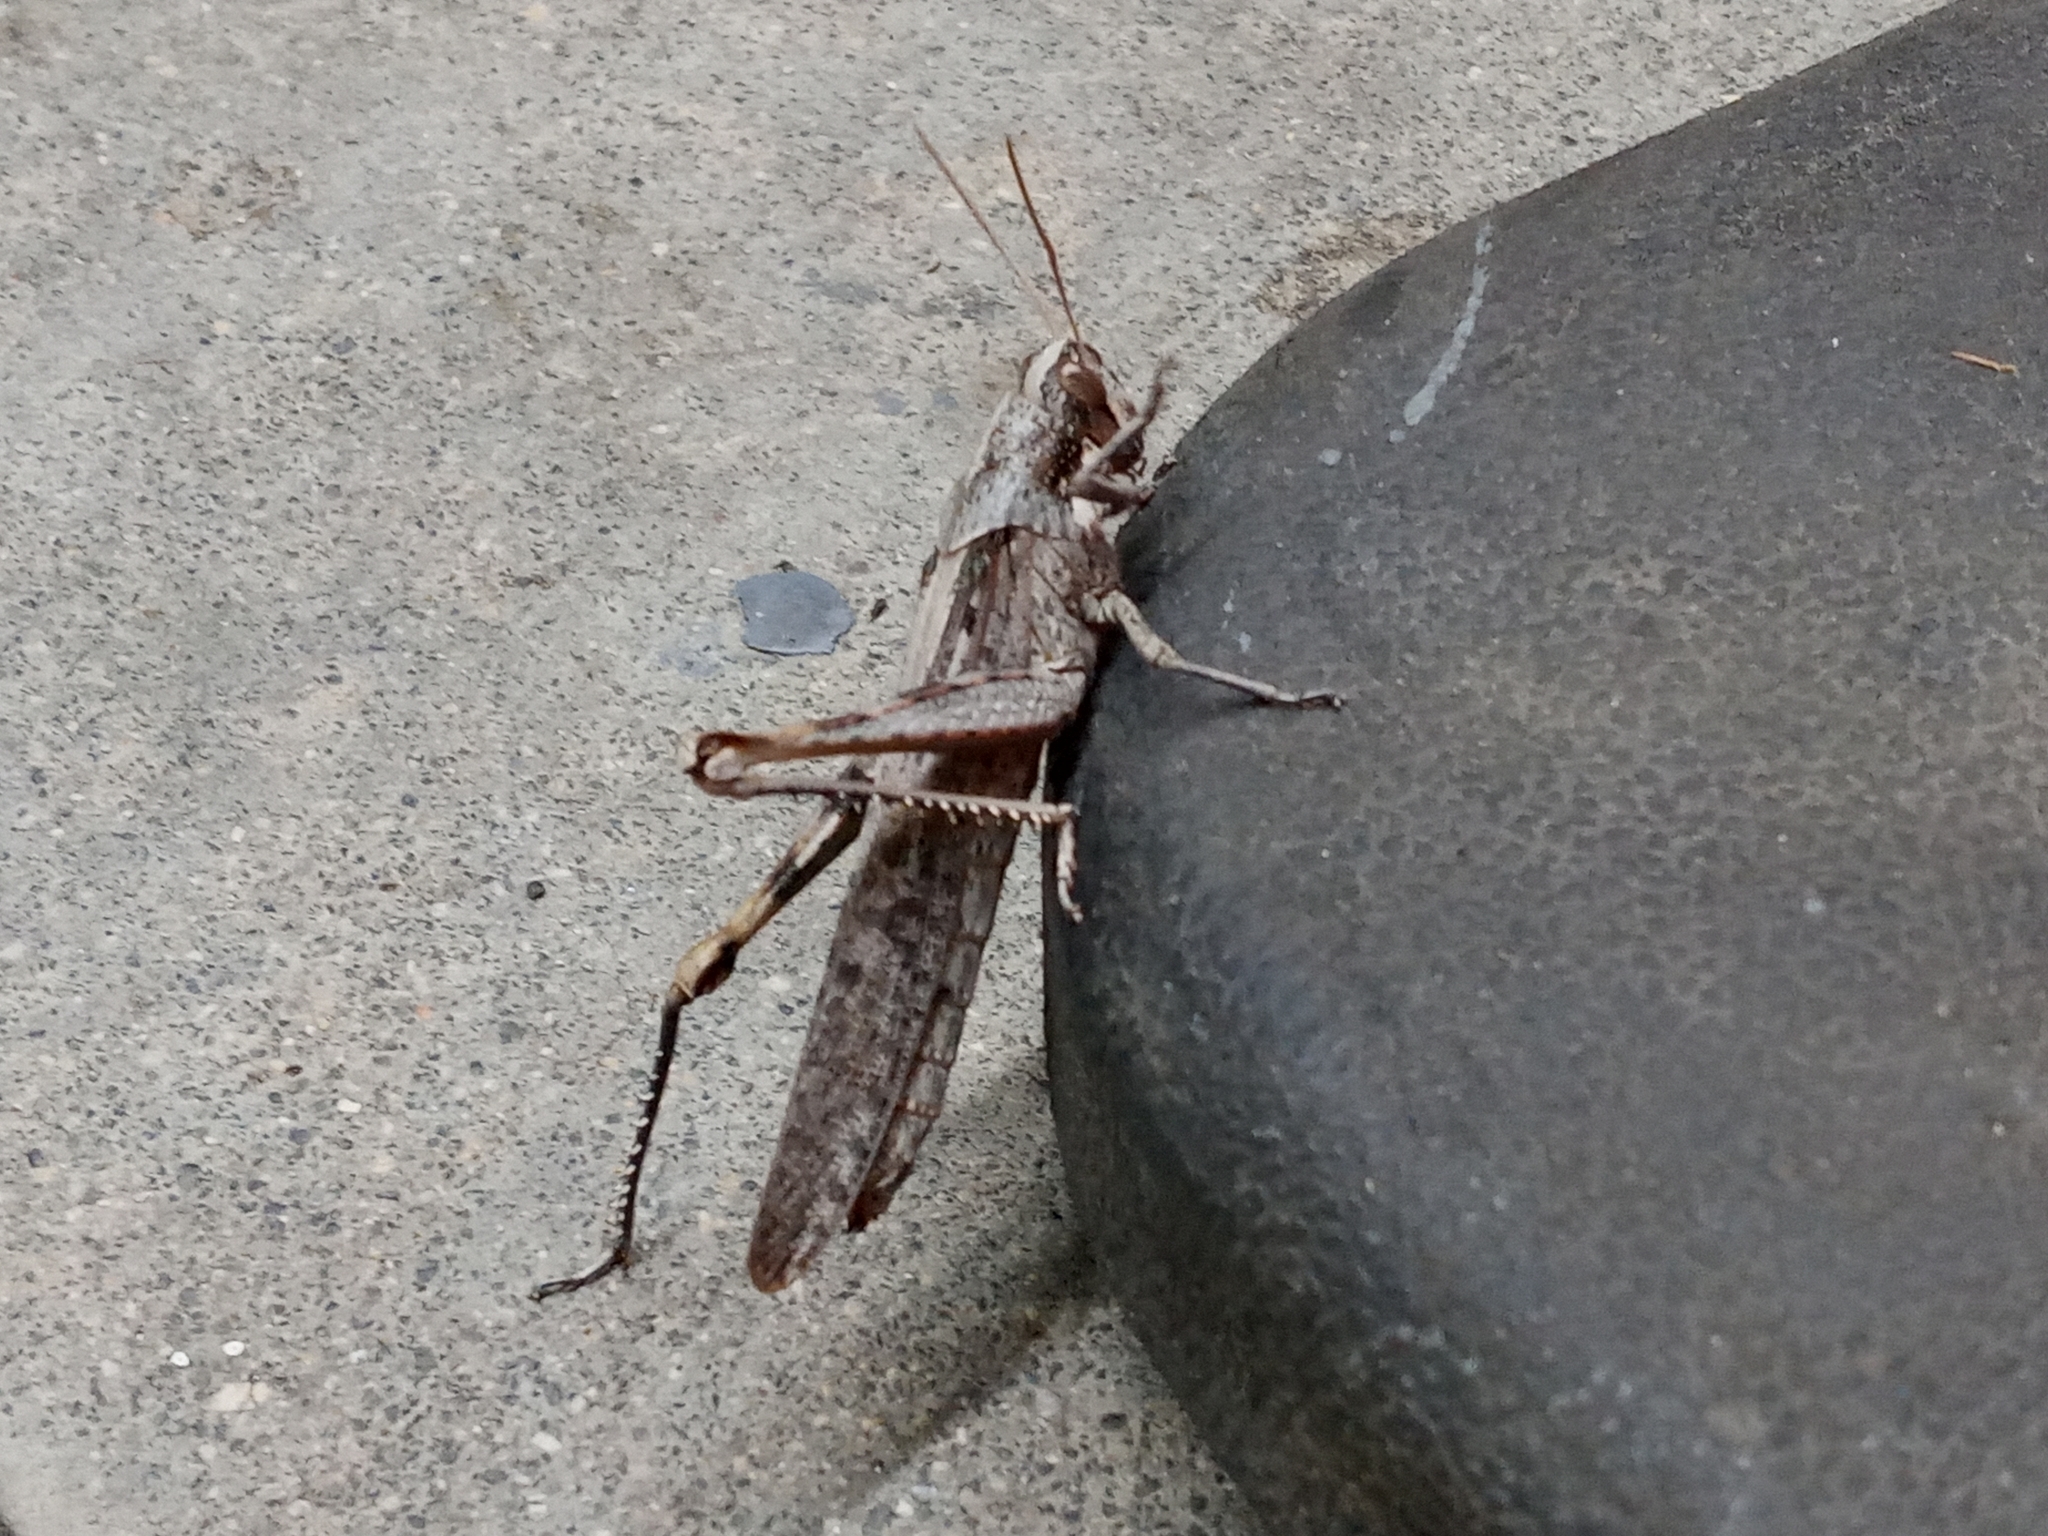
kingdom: Animalia
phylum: Arthropoda
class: Insecta
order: Orthoptera
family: Acrididae
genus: Schistocerca
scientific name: Schistocerca nitens
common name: Vagrant grasshopper
